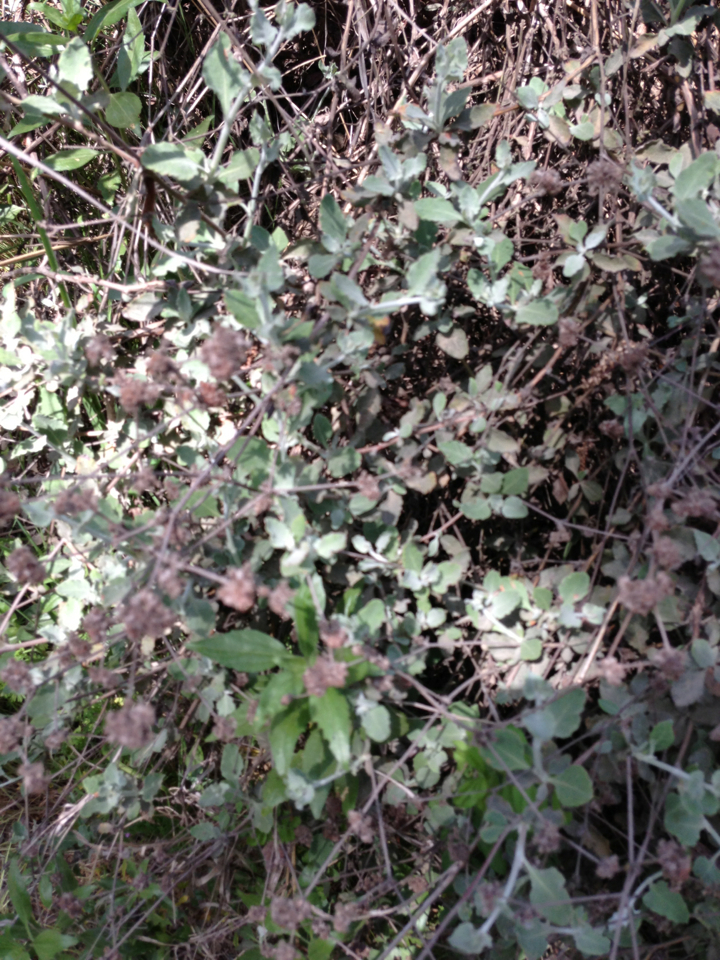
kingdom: Plantae
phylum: Tracheophyta
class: Magnoliopsida
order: Caryophyllales
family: Polygonaceae
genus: Eriogonum
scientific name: Eriogonum cinereum
